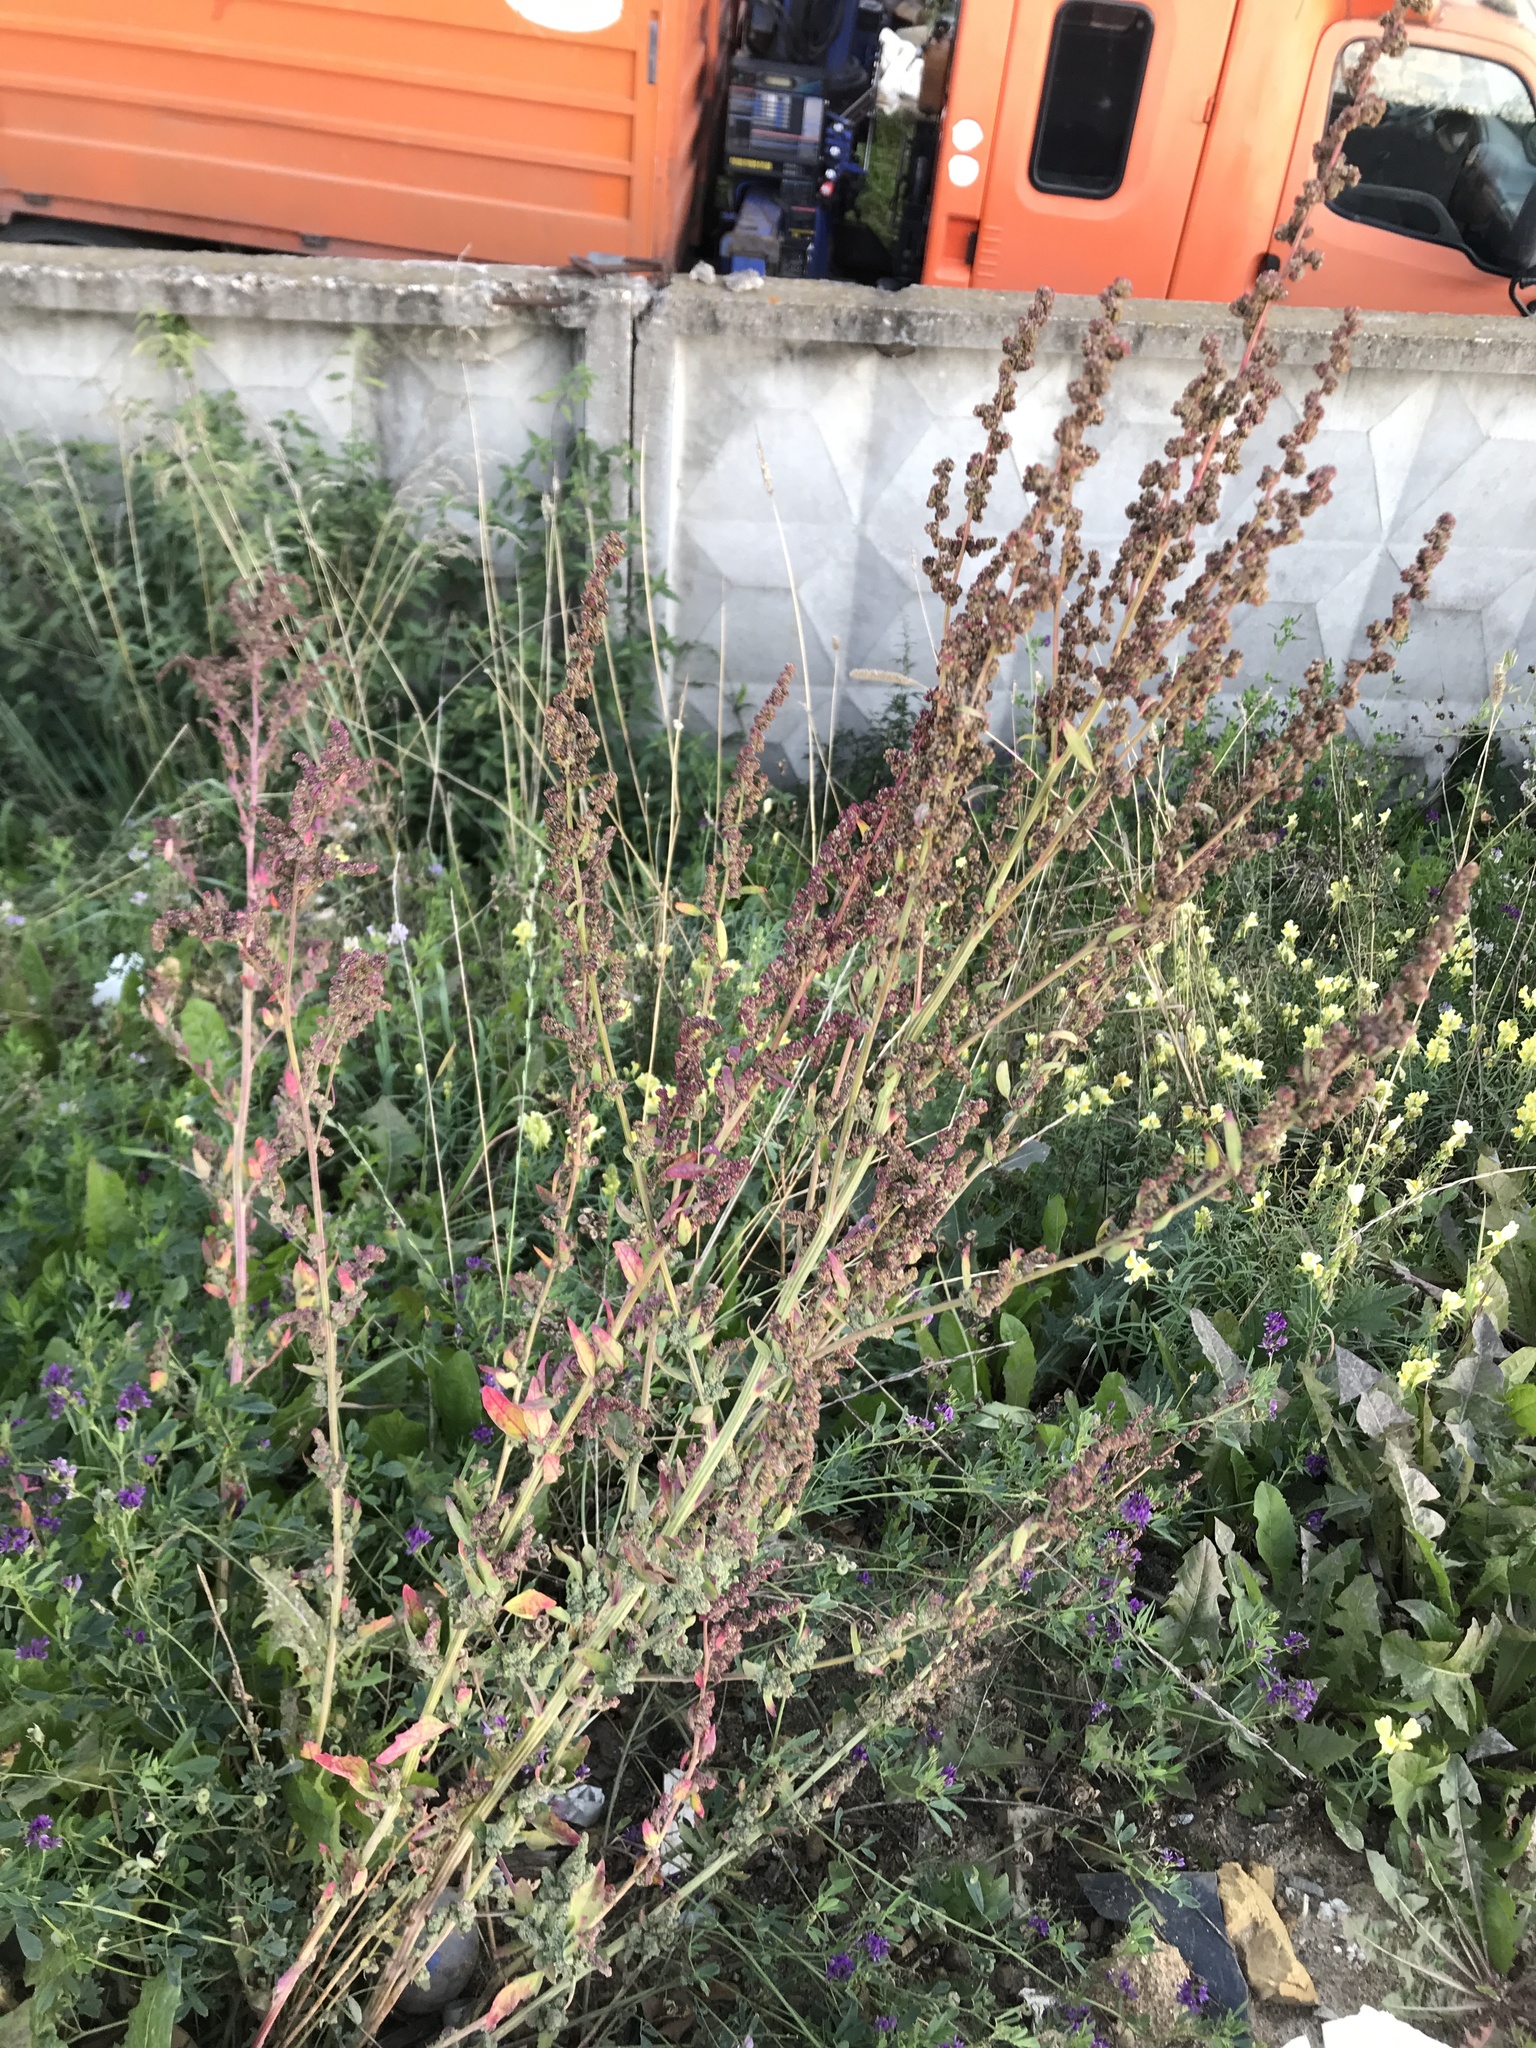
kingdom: Plantae
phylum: Tracheophyta
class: Magnoliopsida
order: Caryophyllales
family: Amaranthaceae
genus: Chenopodium
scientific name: Chenopodium album
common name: Fat-hen
